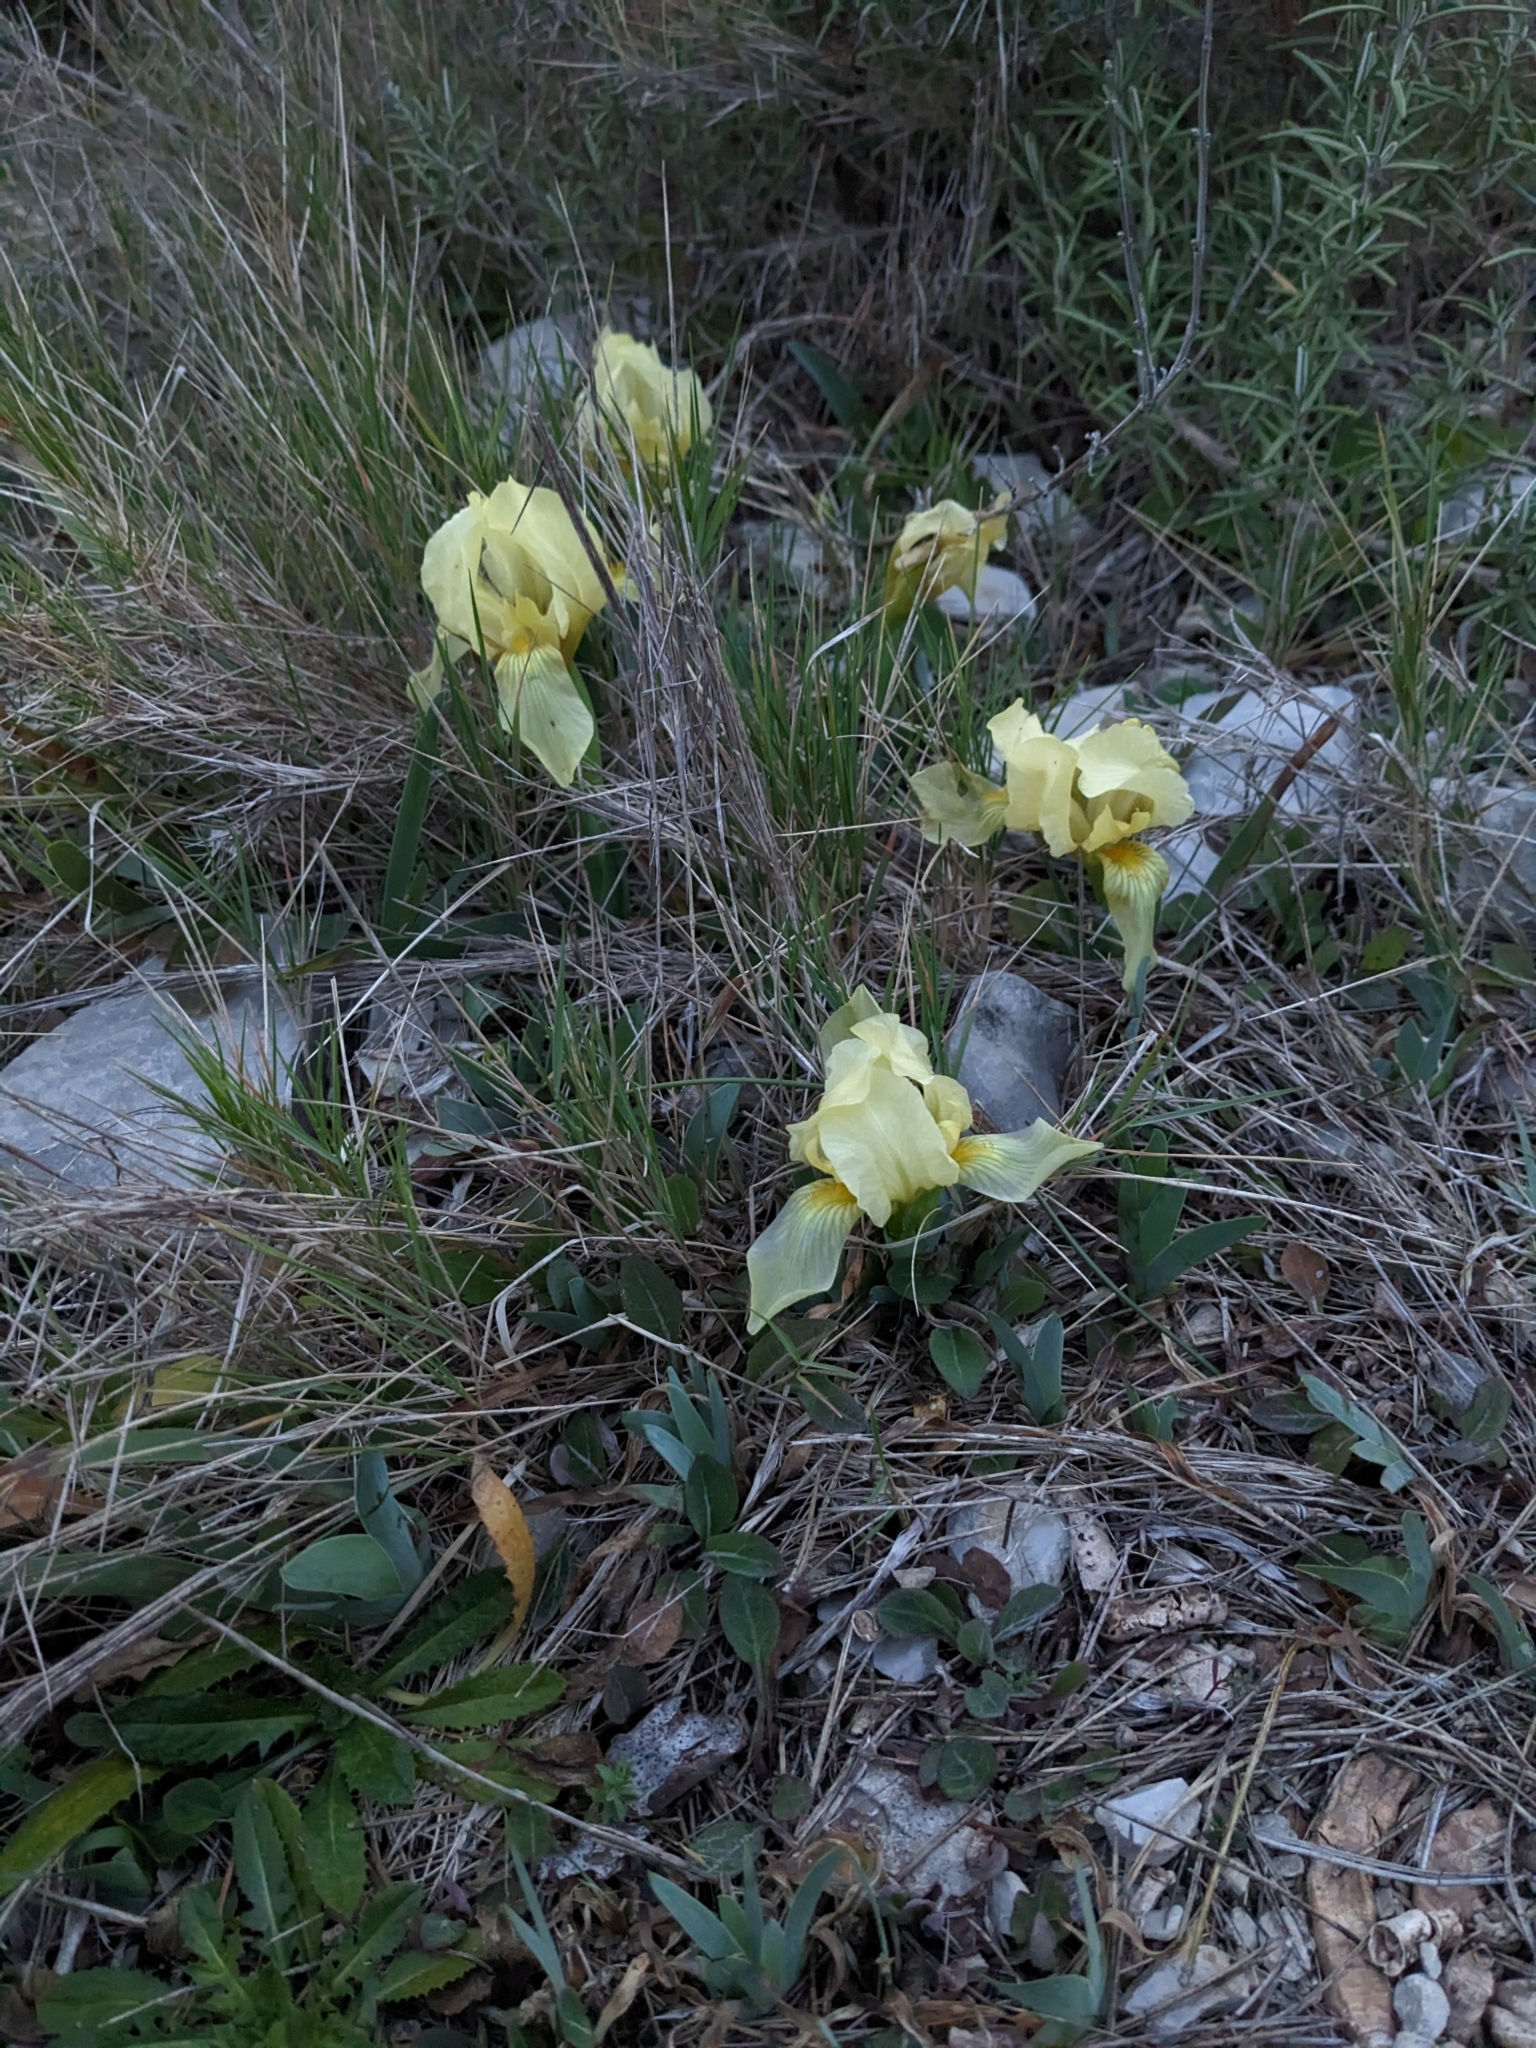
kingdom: Plantae
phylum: Tracheophyta
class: Liliopsida
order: Asparagales
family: Iridaceae
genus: Iris
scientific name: Iris lutescens
